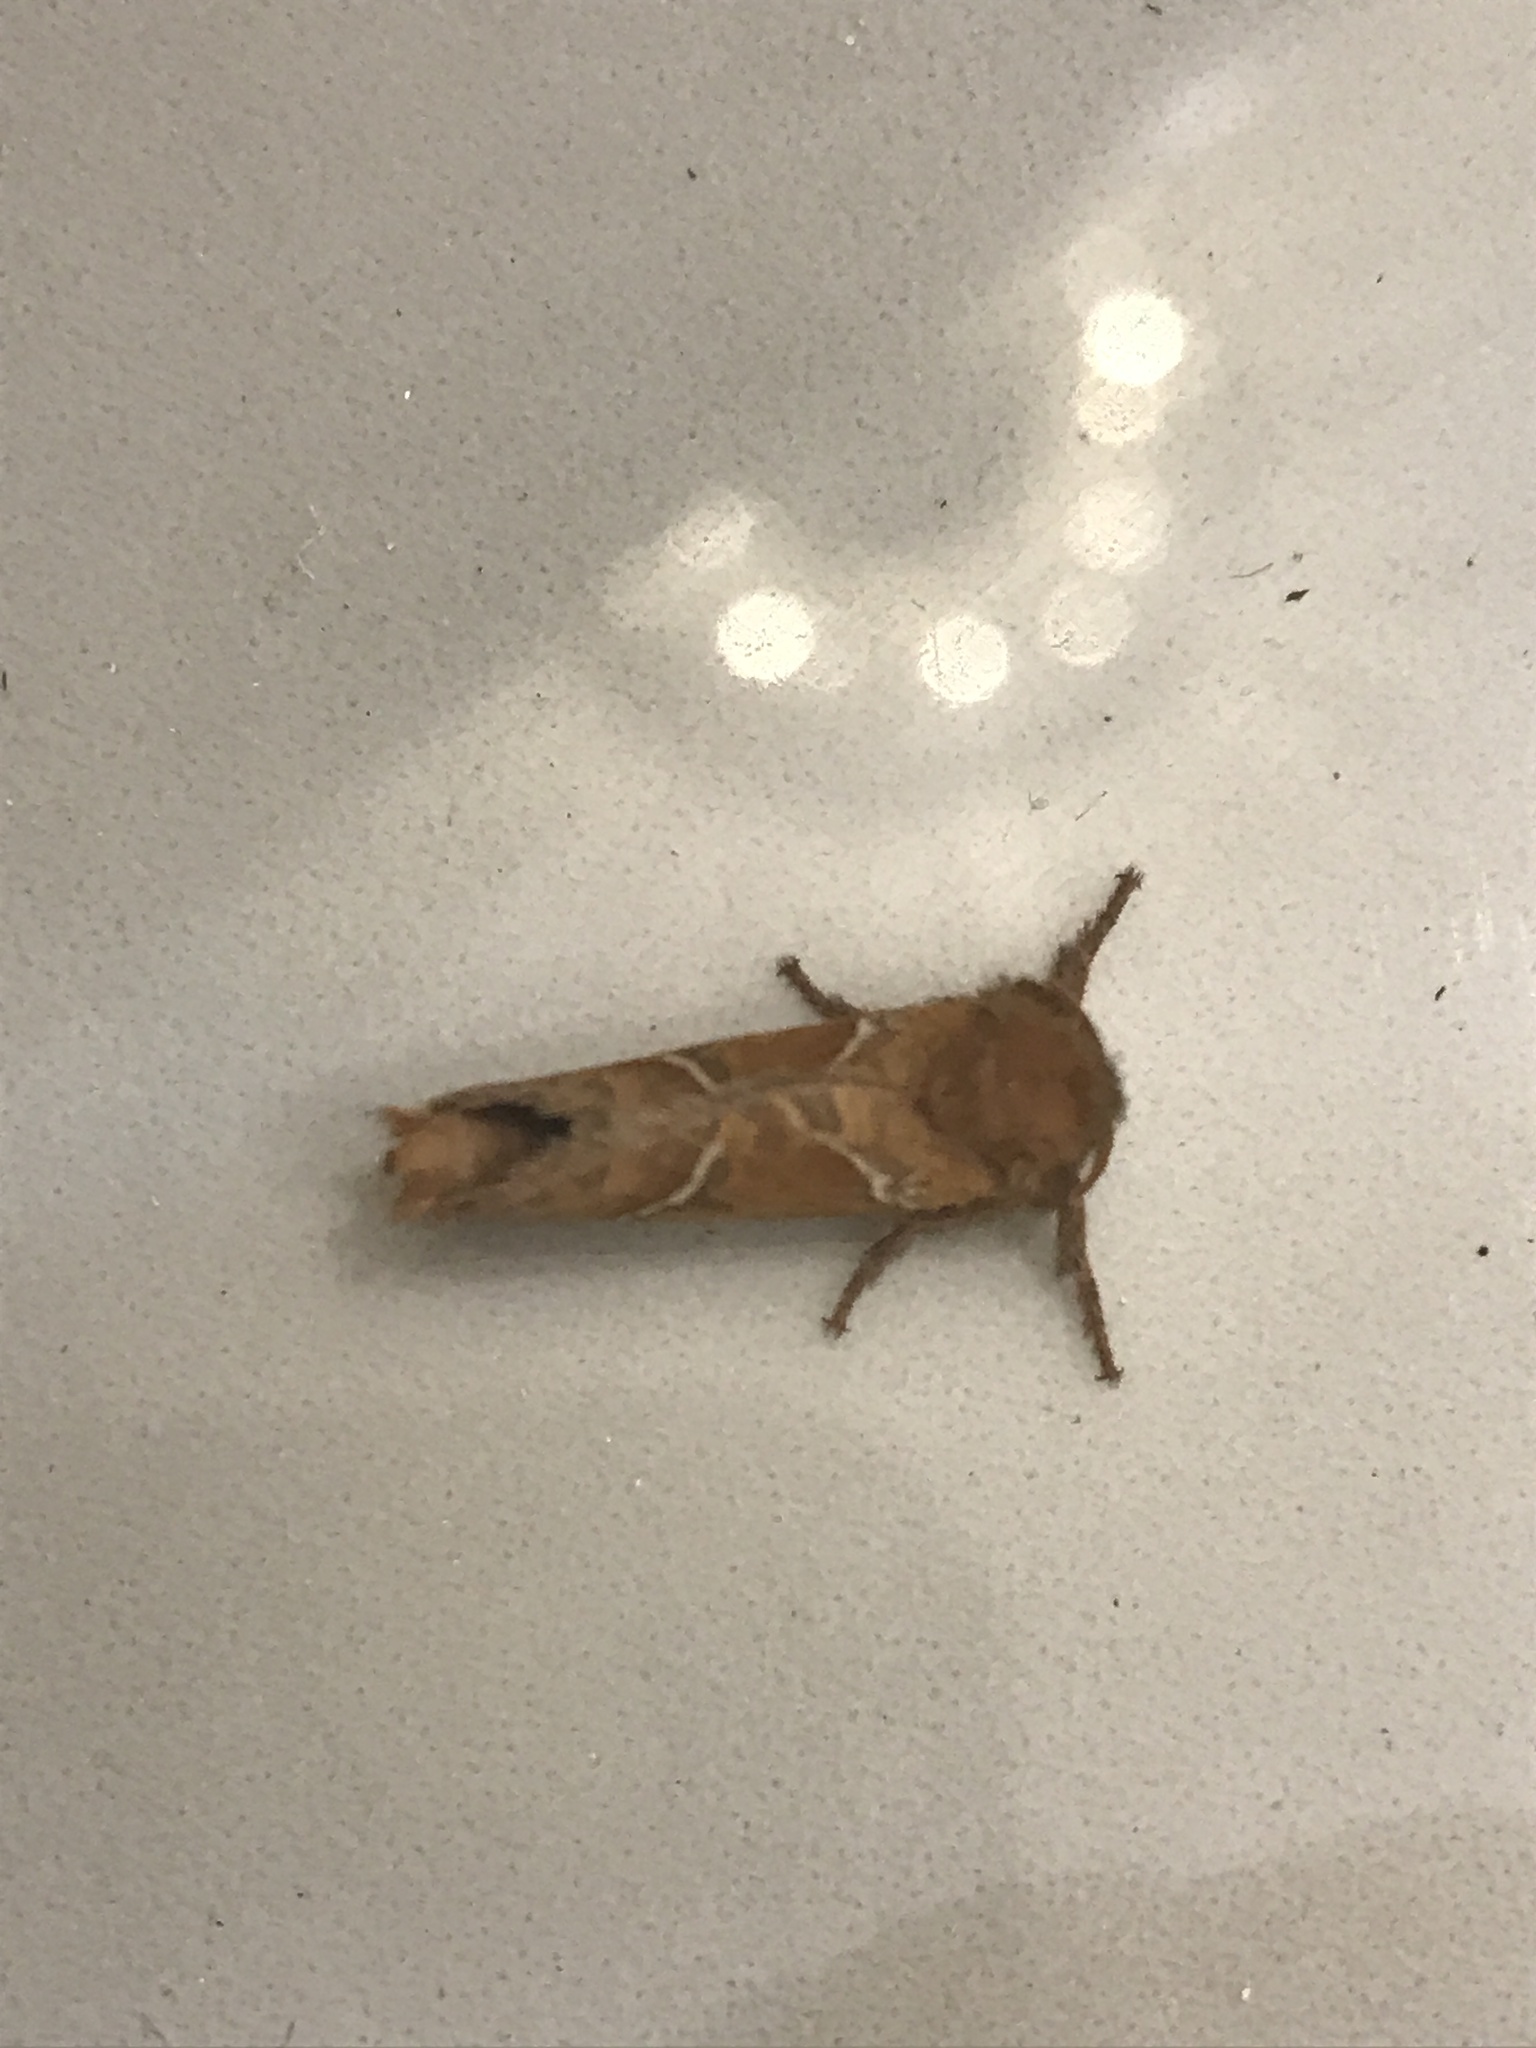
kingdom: Animalia
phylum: Arthropoda
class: Insecta
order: Lepidoptera
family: Hepialidae
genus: Triodia
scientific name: Triodia sylvina
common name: Orange swift
